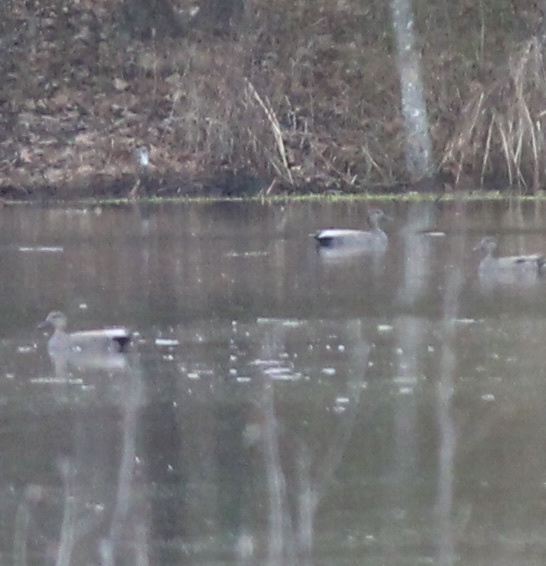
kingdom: Animalia
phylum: Chordata
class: Aves
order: Anseriformes
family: Anatidae
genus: Mareca
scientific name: Mareca strepera
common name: Gadwall
